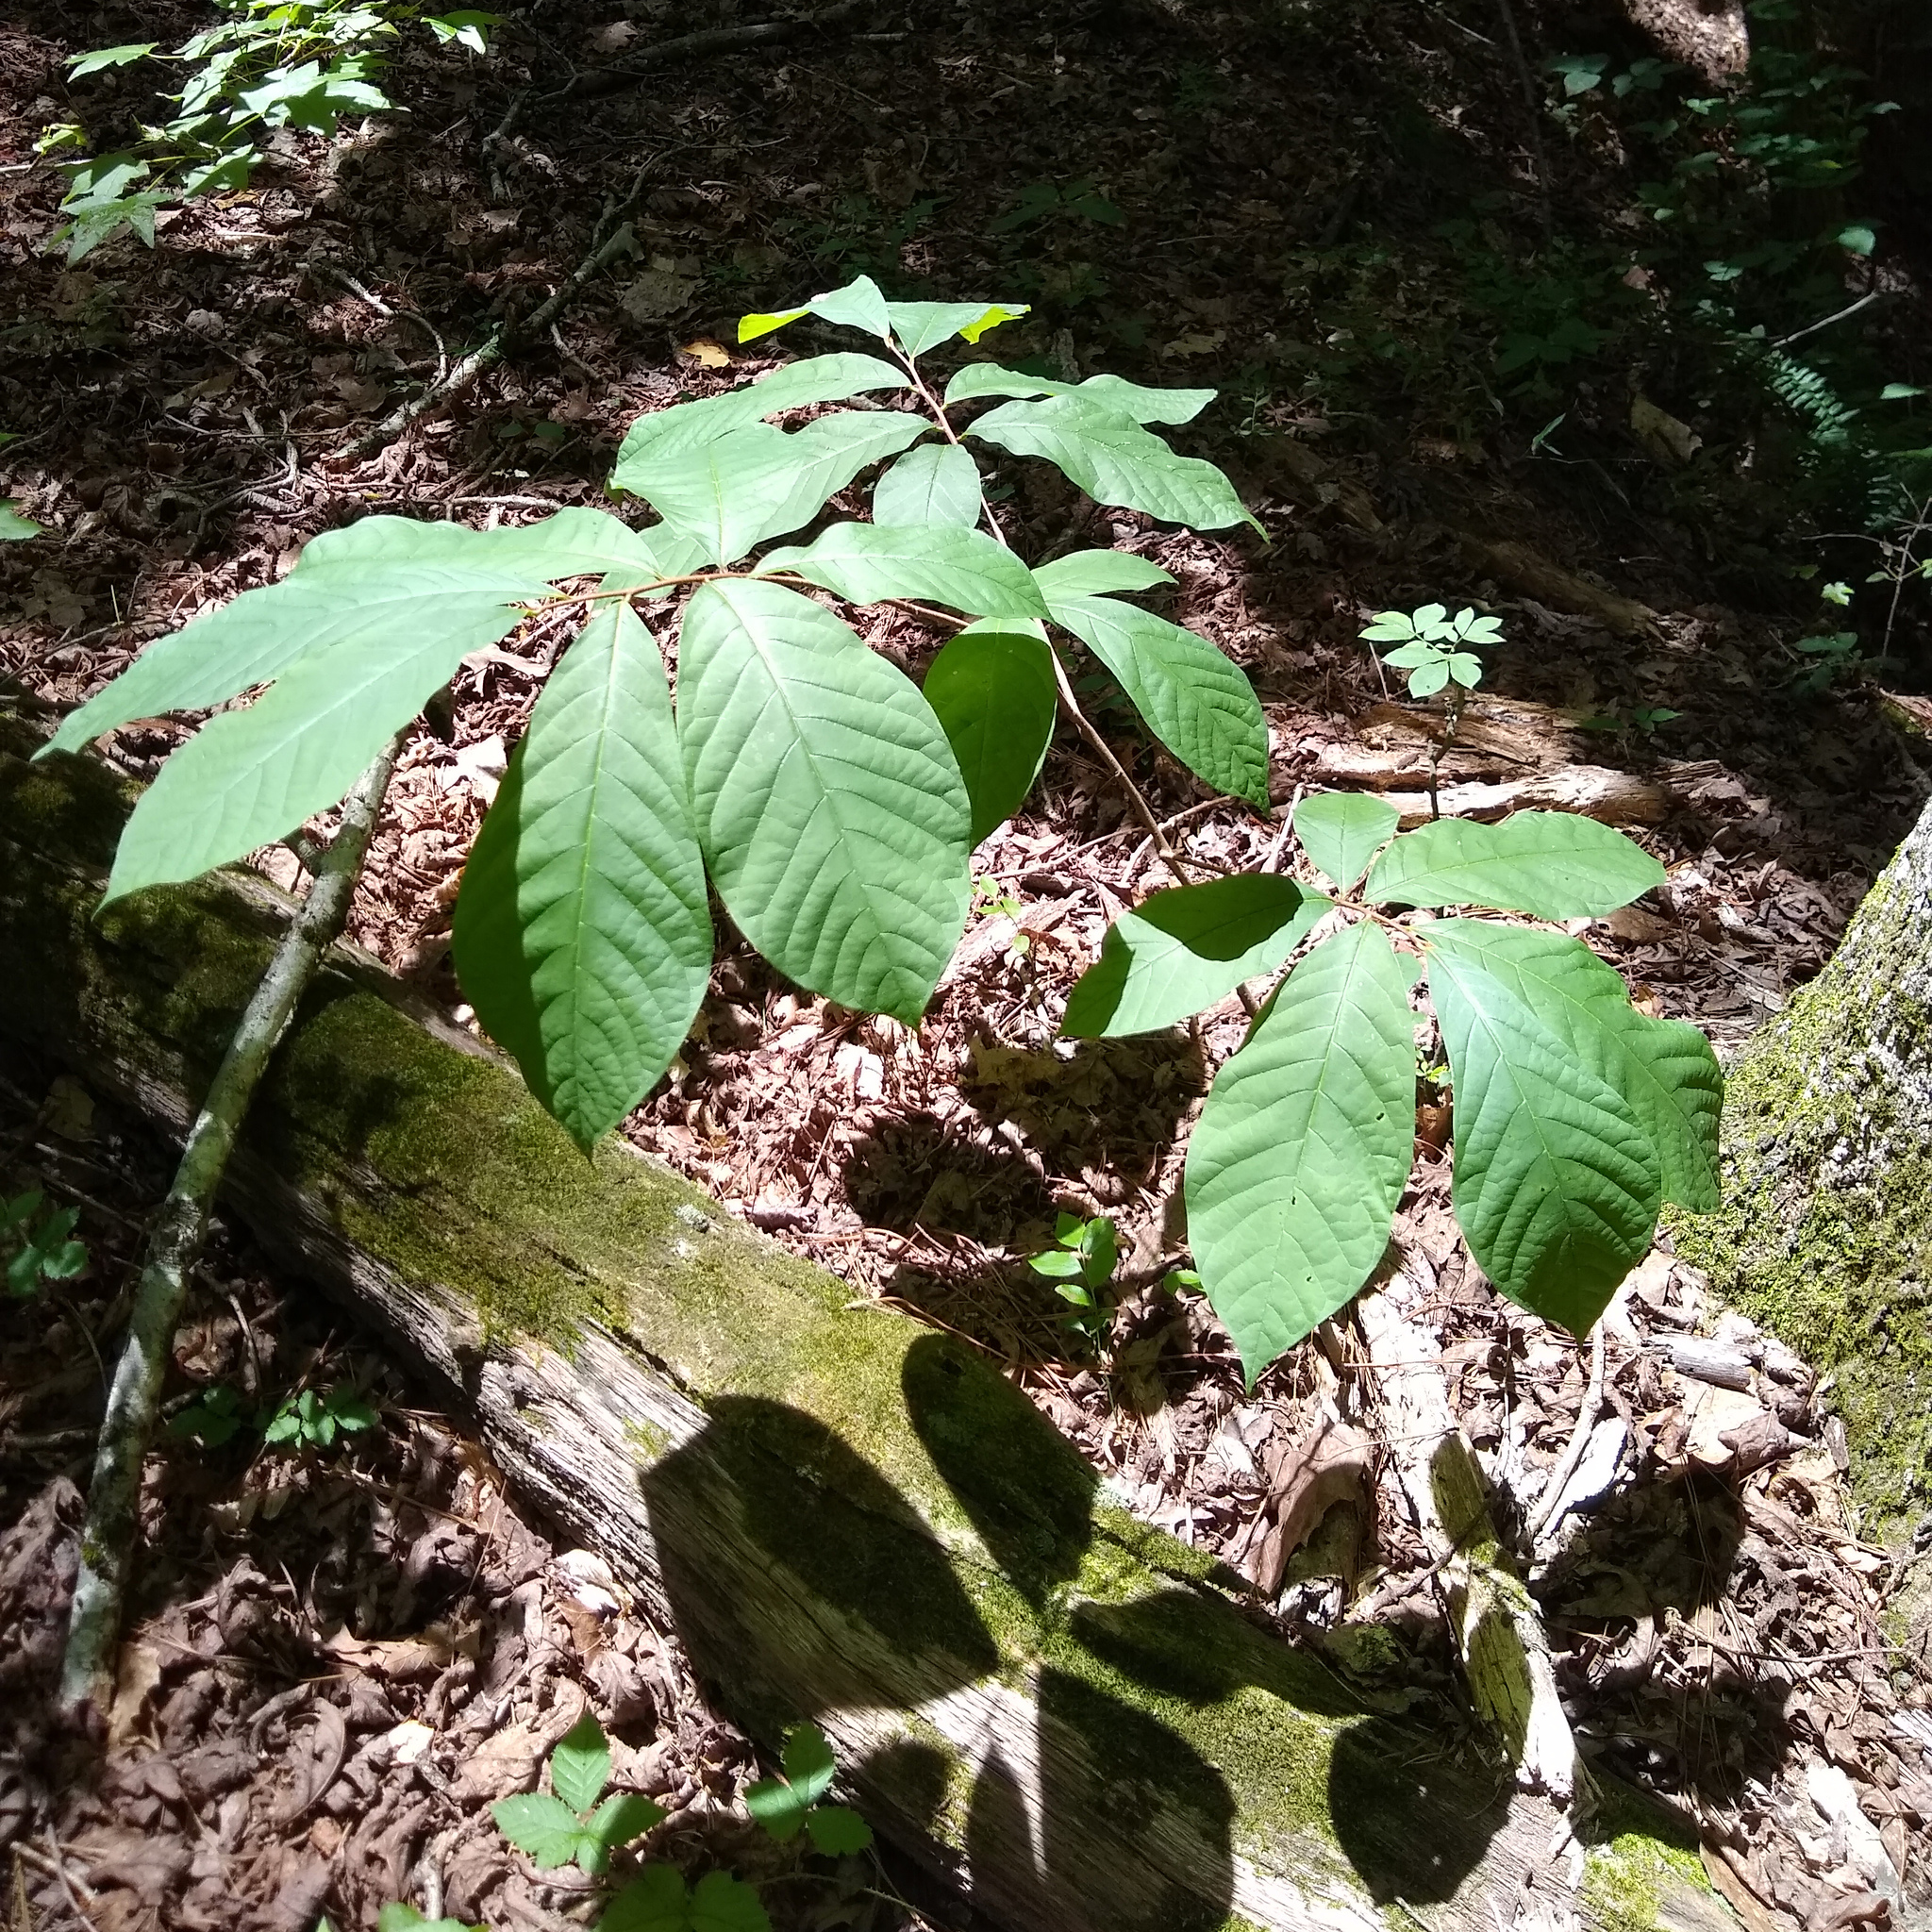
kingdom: Plantae
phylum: Tracheophyta
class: Magnoliopsida
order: Magnoliales
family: Annonaceae
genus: Asimina
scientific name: Asimina triloba
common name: Dog-banana
